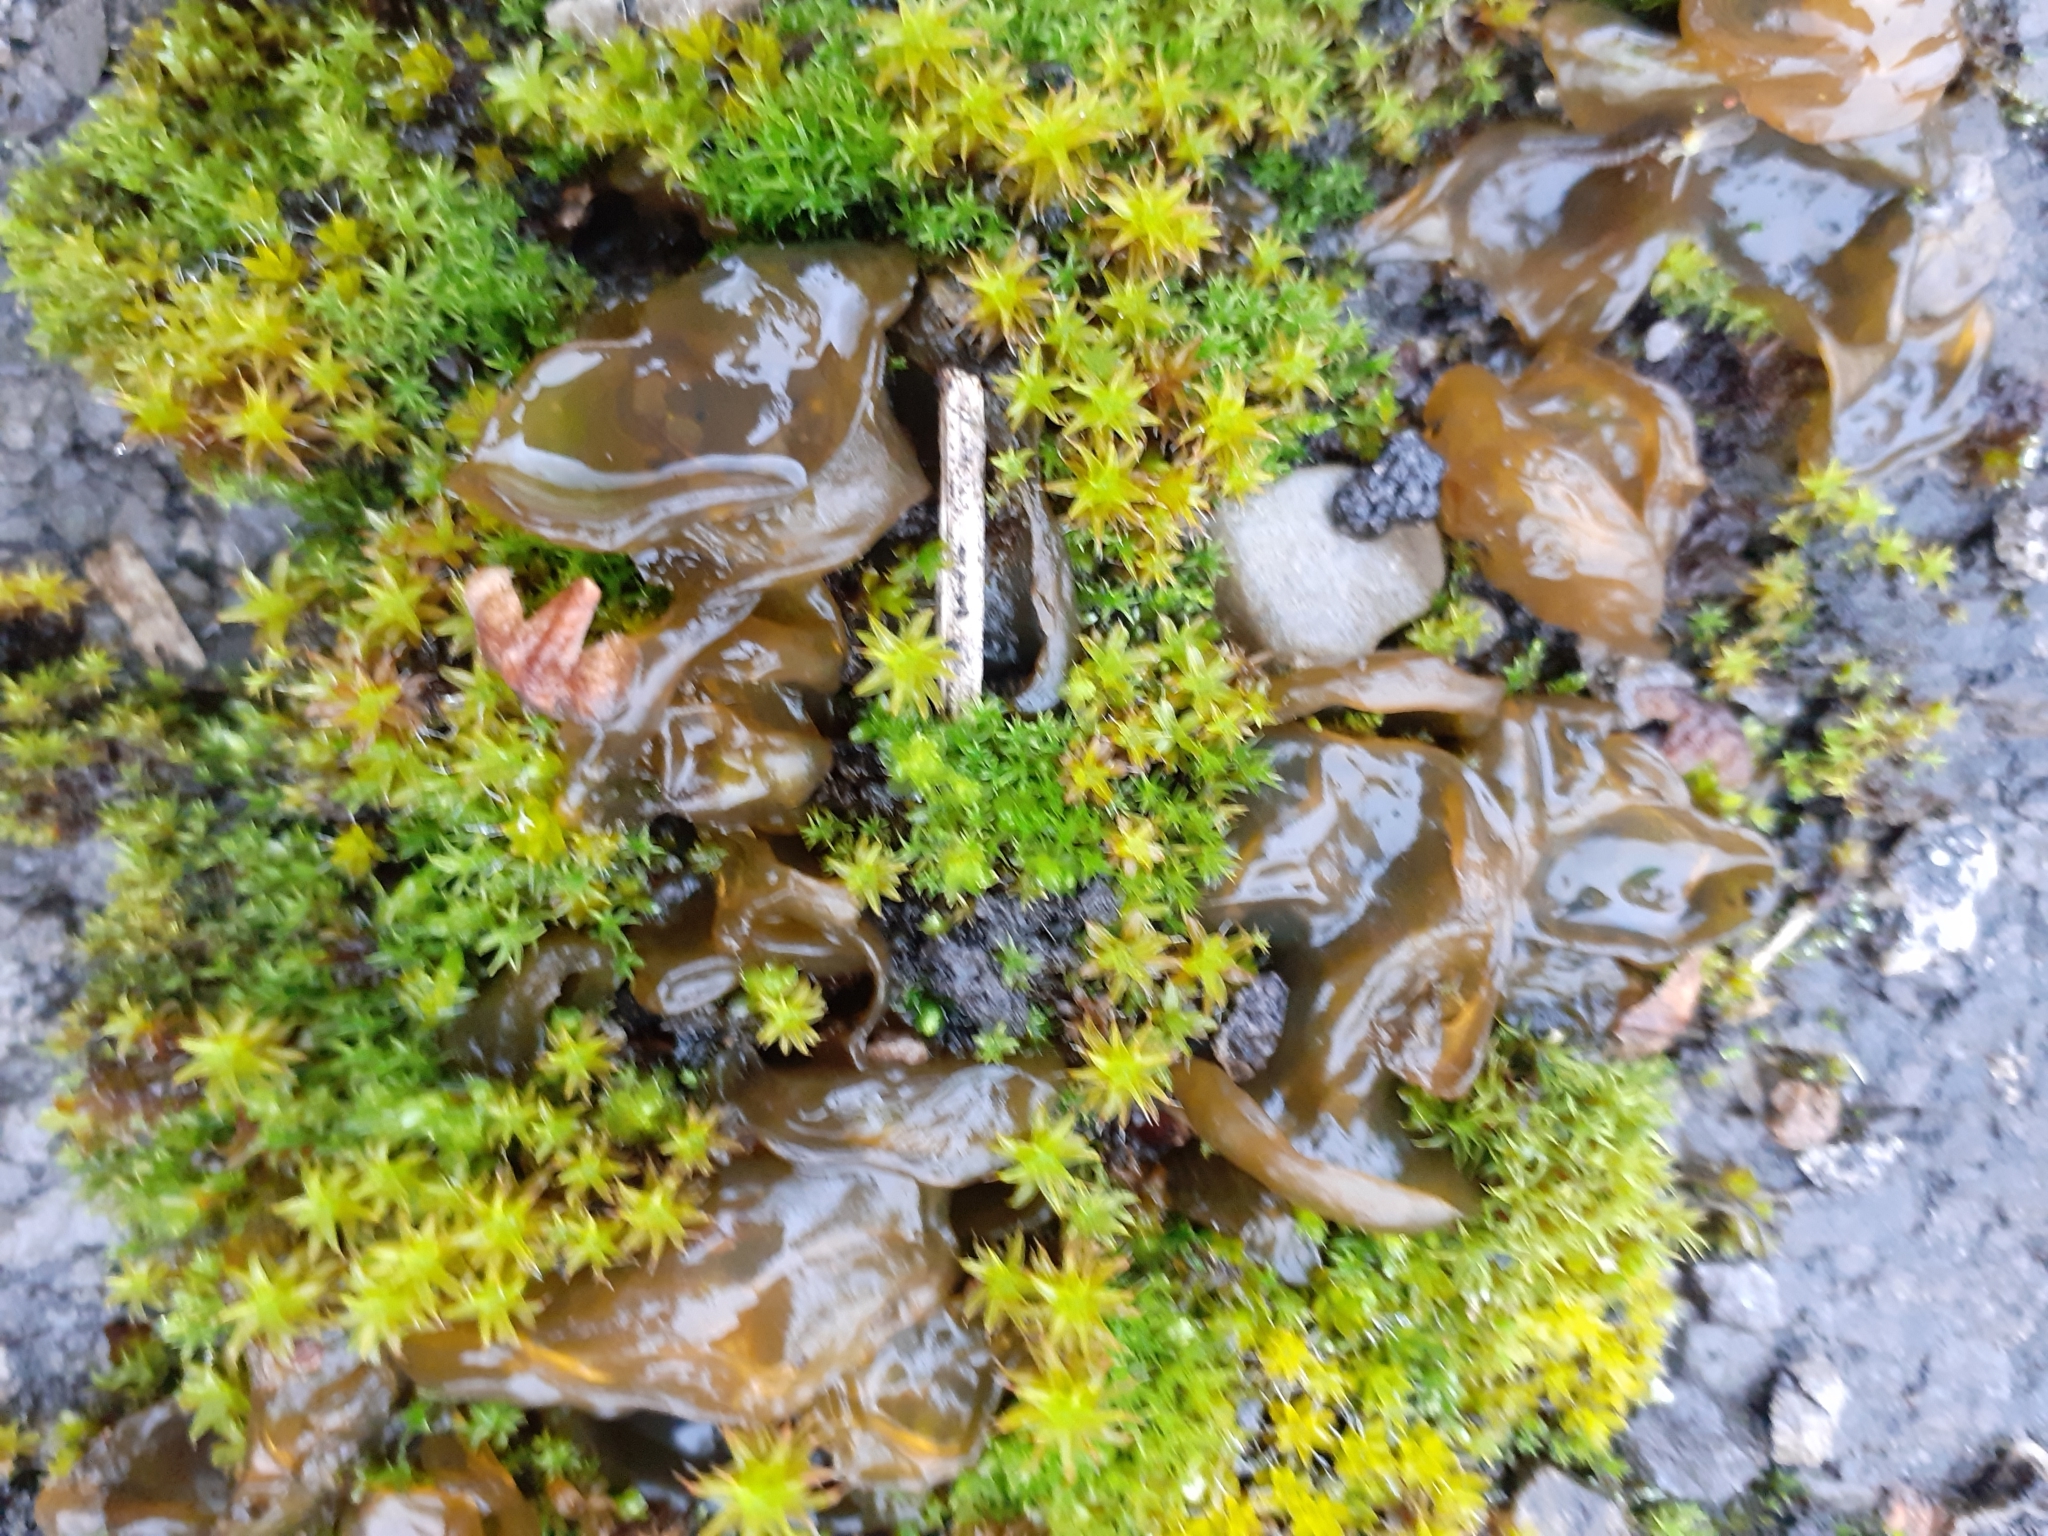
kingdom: Bacteria
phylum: Cyanobacteria
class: Cyanobacteriia
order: Cyanobacteriales
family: Nostocaceae
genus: Nostoc
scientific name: Nostoc commune
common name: Star jelly
